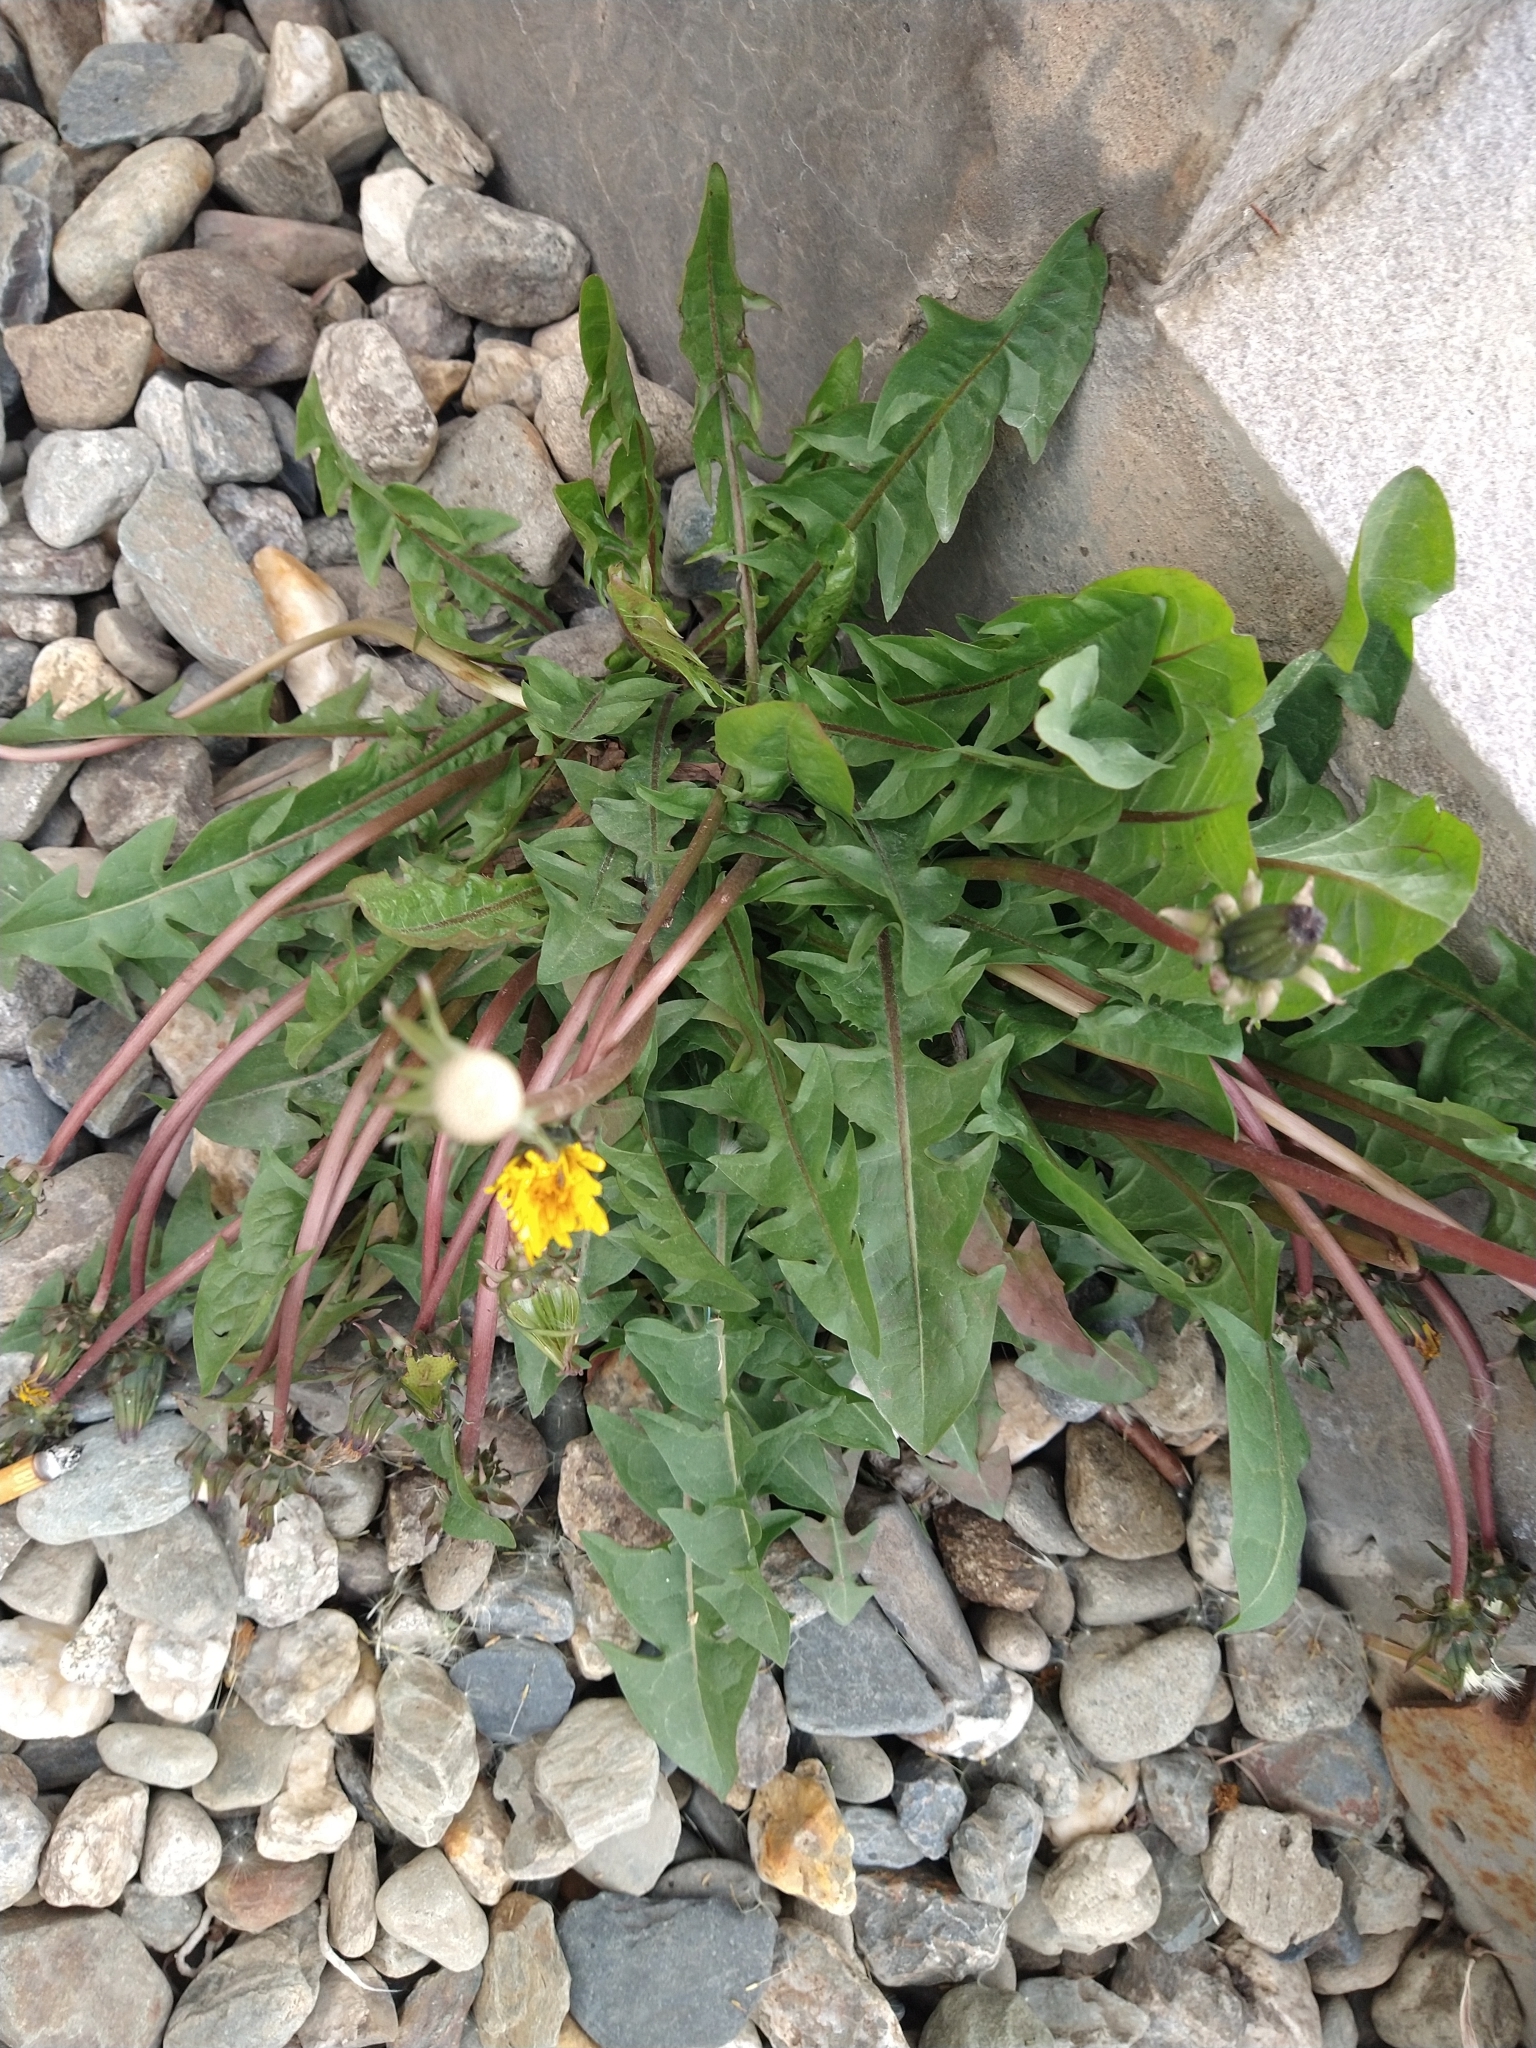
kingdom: Plantae
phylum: Tracheophyta
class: Magnoliopsida
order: Asterales
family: Asteraceae
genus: Taraxacum
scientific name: Taraxacum officinale
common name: Common dandelion
